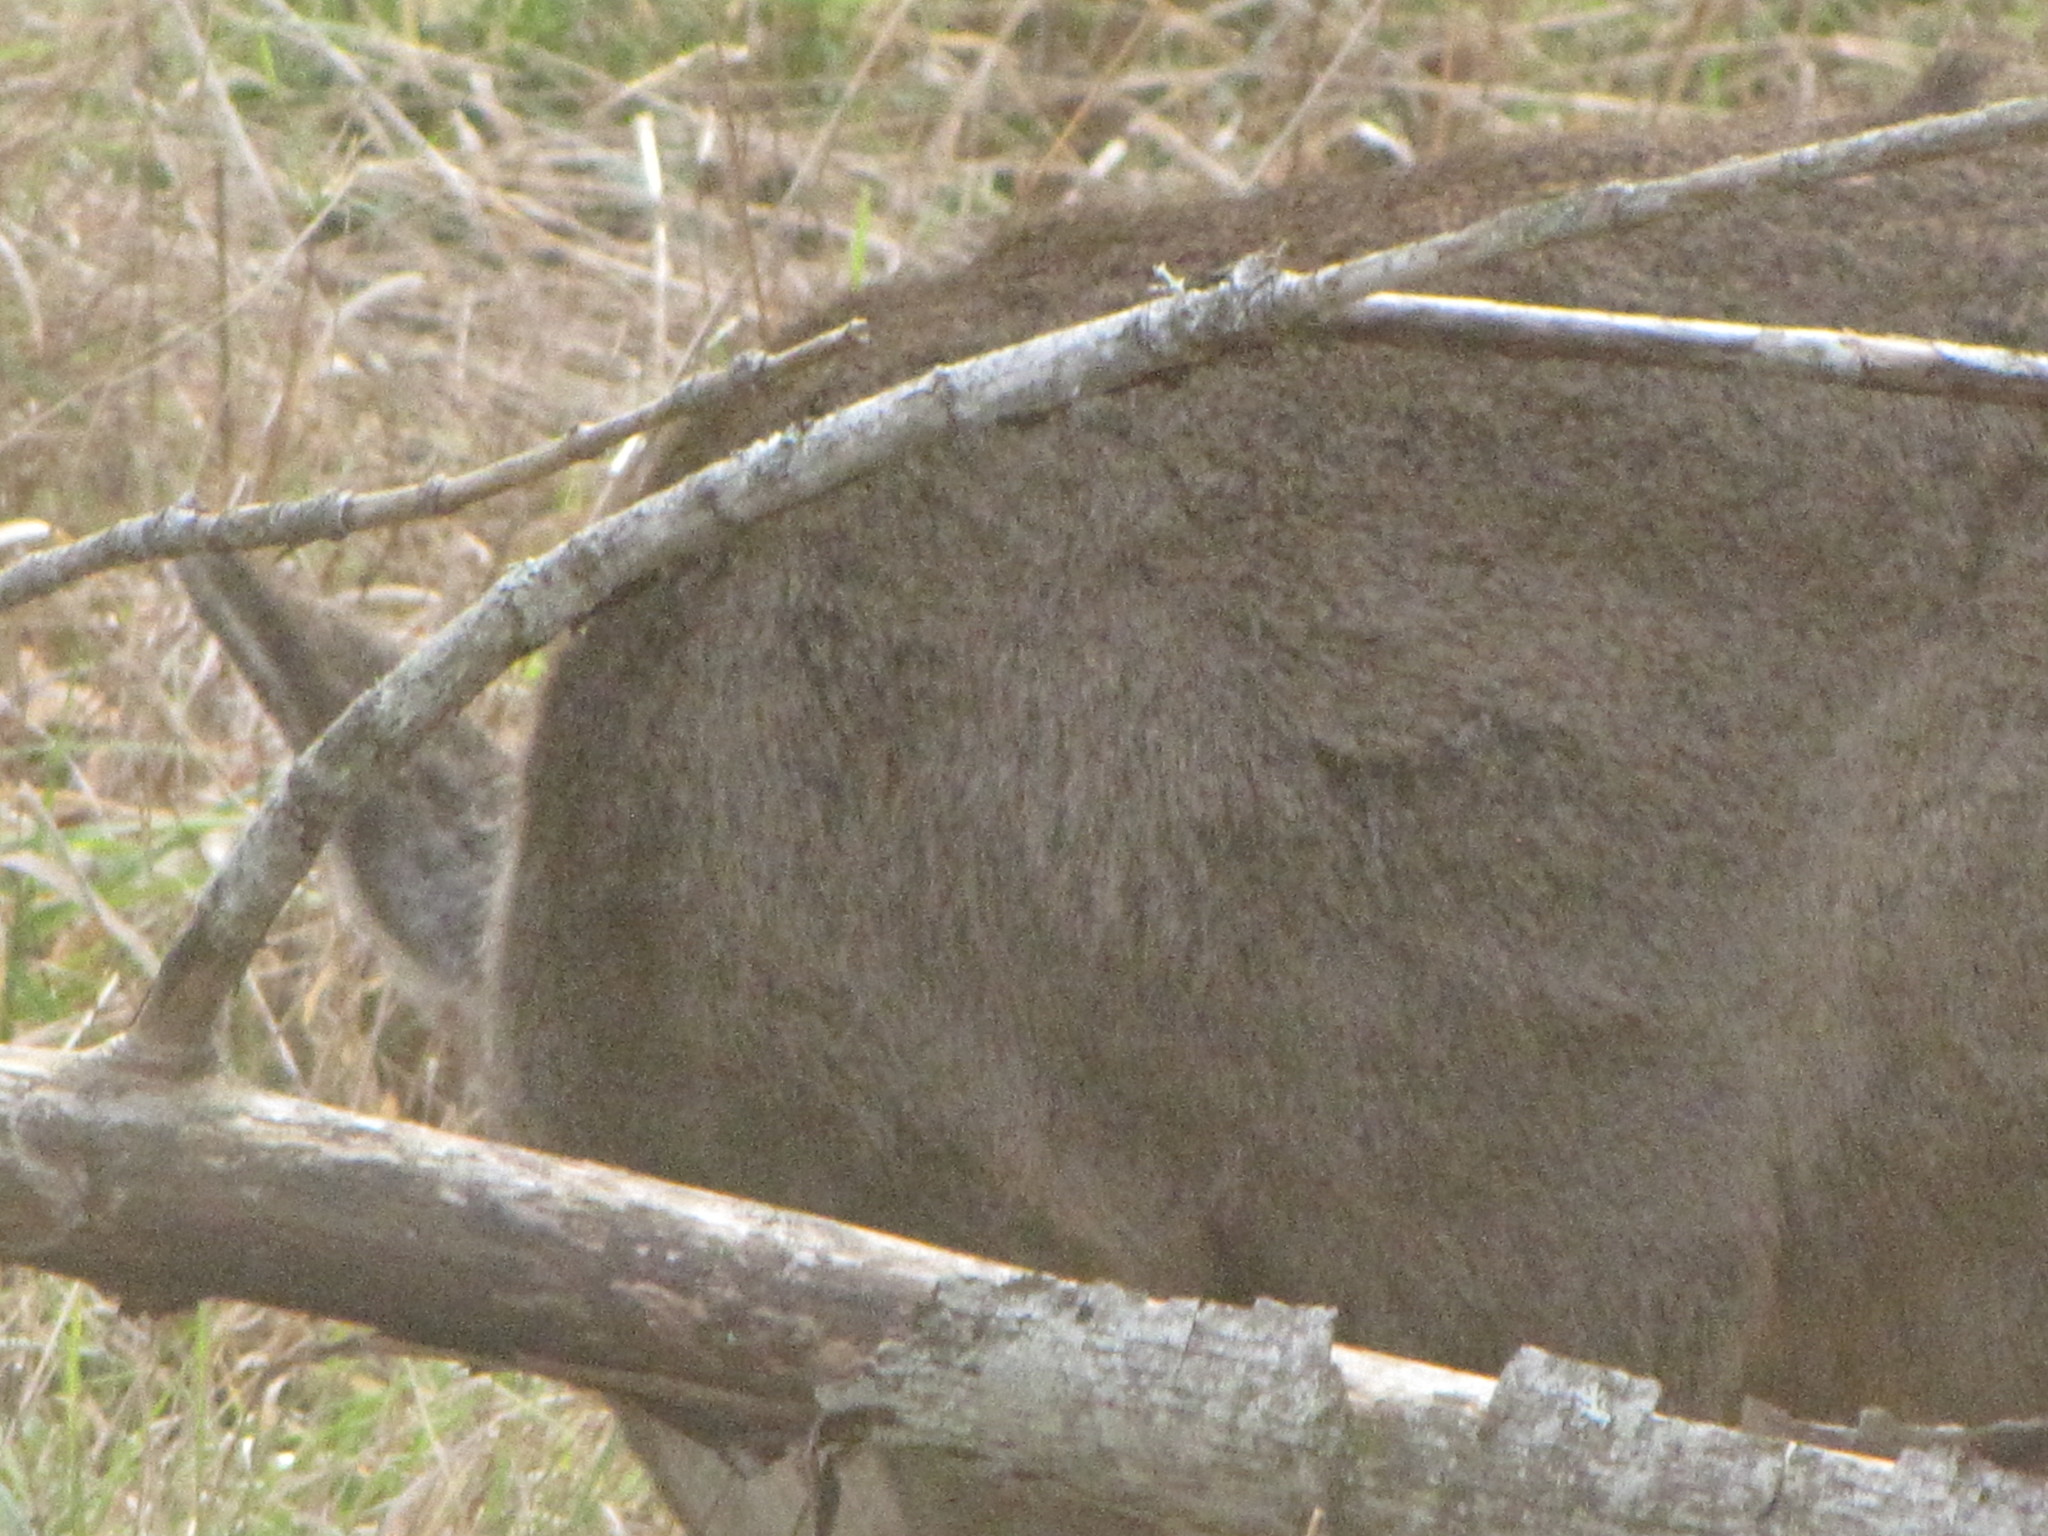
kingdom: Animalia
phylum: Chordata
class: Mammalia
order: Artiodactyla
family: Cervidae
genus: Odocoileus
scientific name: Odocoileus hemionus
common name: Mule deer
